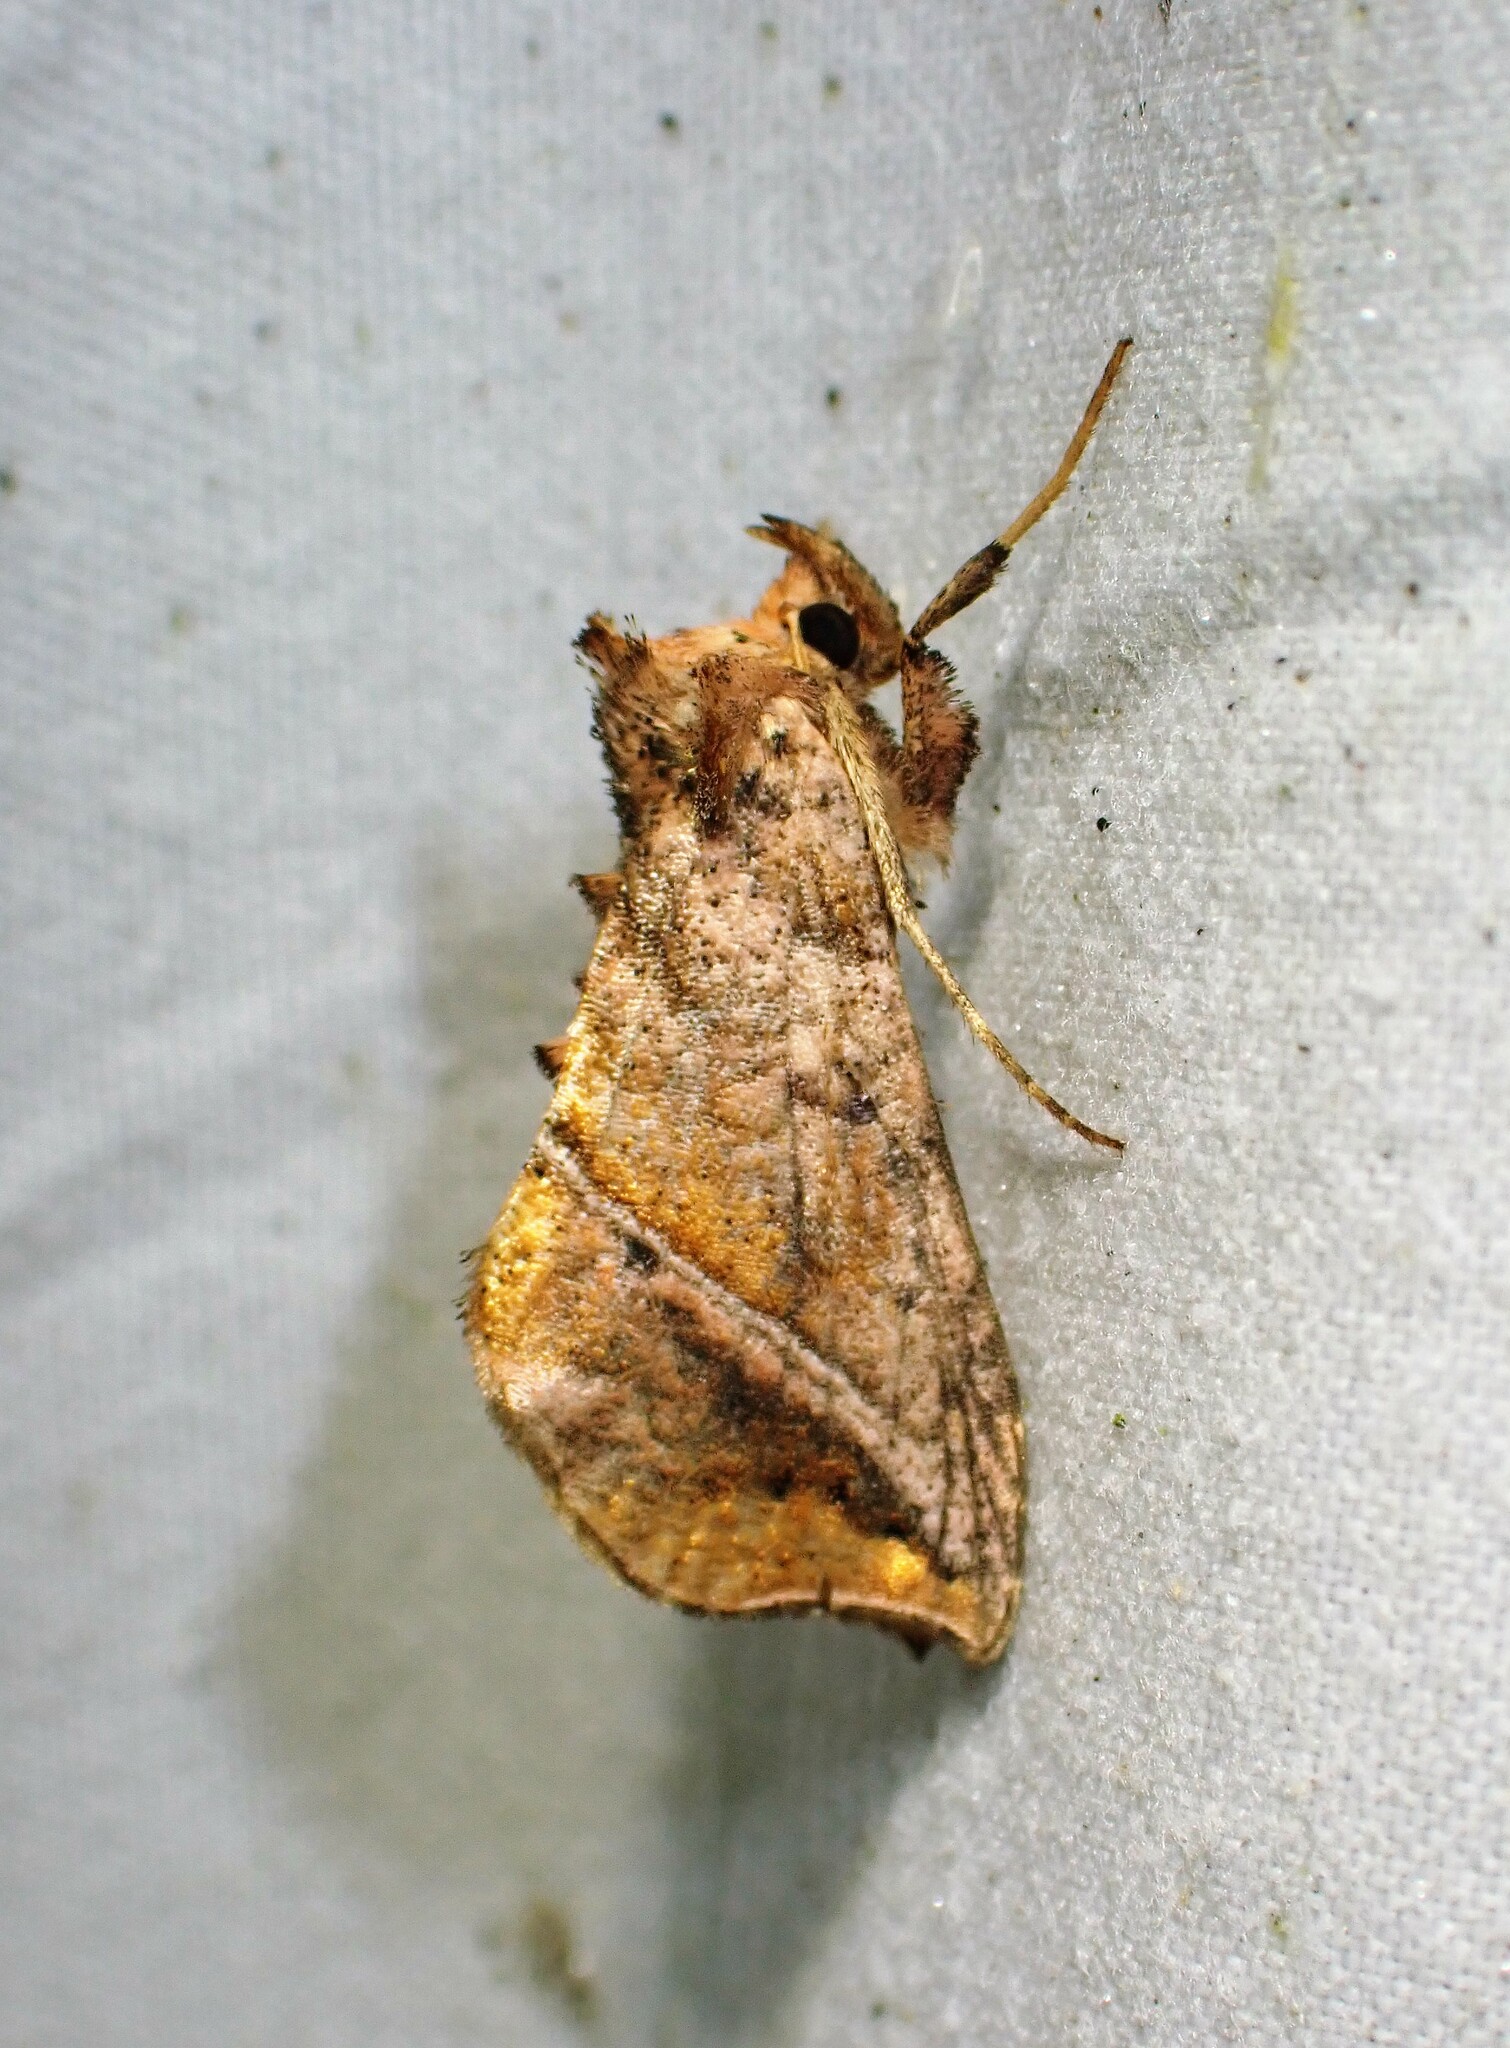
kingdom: Animalia
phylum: Arthropoda
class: Insecta
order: Lepidoptera
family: Noctuidae
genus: Pseudeva
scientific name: Pseudeva purpurigera
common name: Straight-lined looper moth
